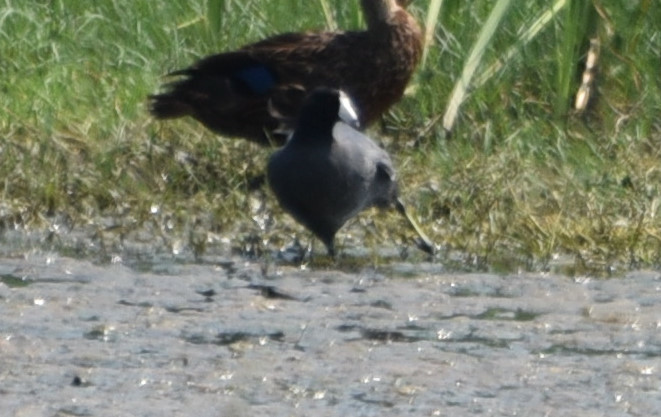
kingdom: Animalia
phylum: Chordata
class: Aves
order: Gruiformes
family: Rallidae
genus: Fulica
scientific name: Fulica americana
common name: American coot
